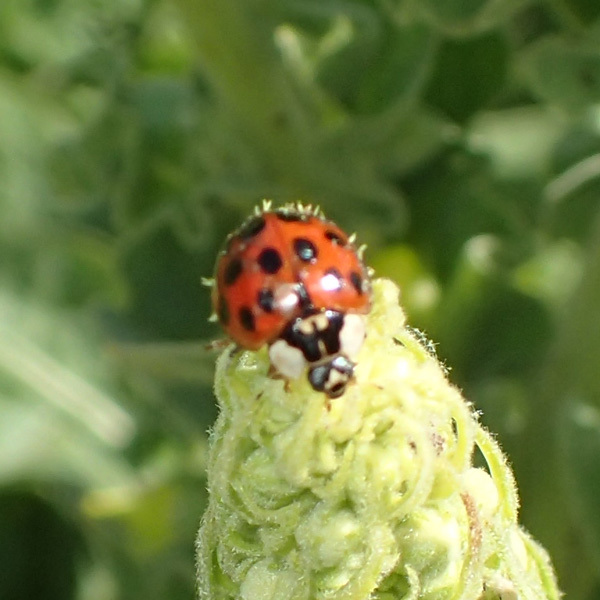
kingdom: Fungi
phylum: Ascomycota
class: Laboulbeniomycetes
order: Laboulbeniales
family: Laboulbeniaceae
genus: Hesperomyces
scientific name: Hesperomyces harmoniae
